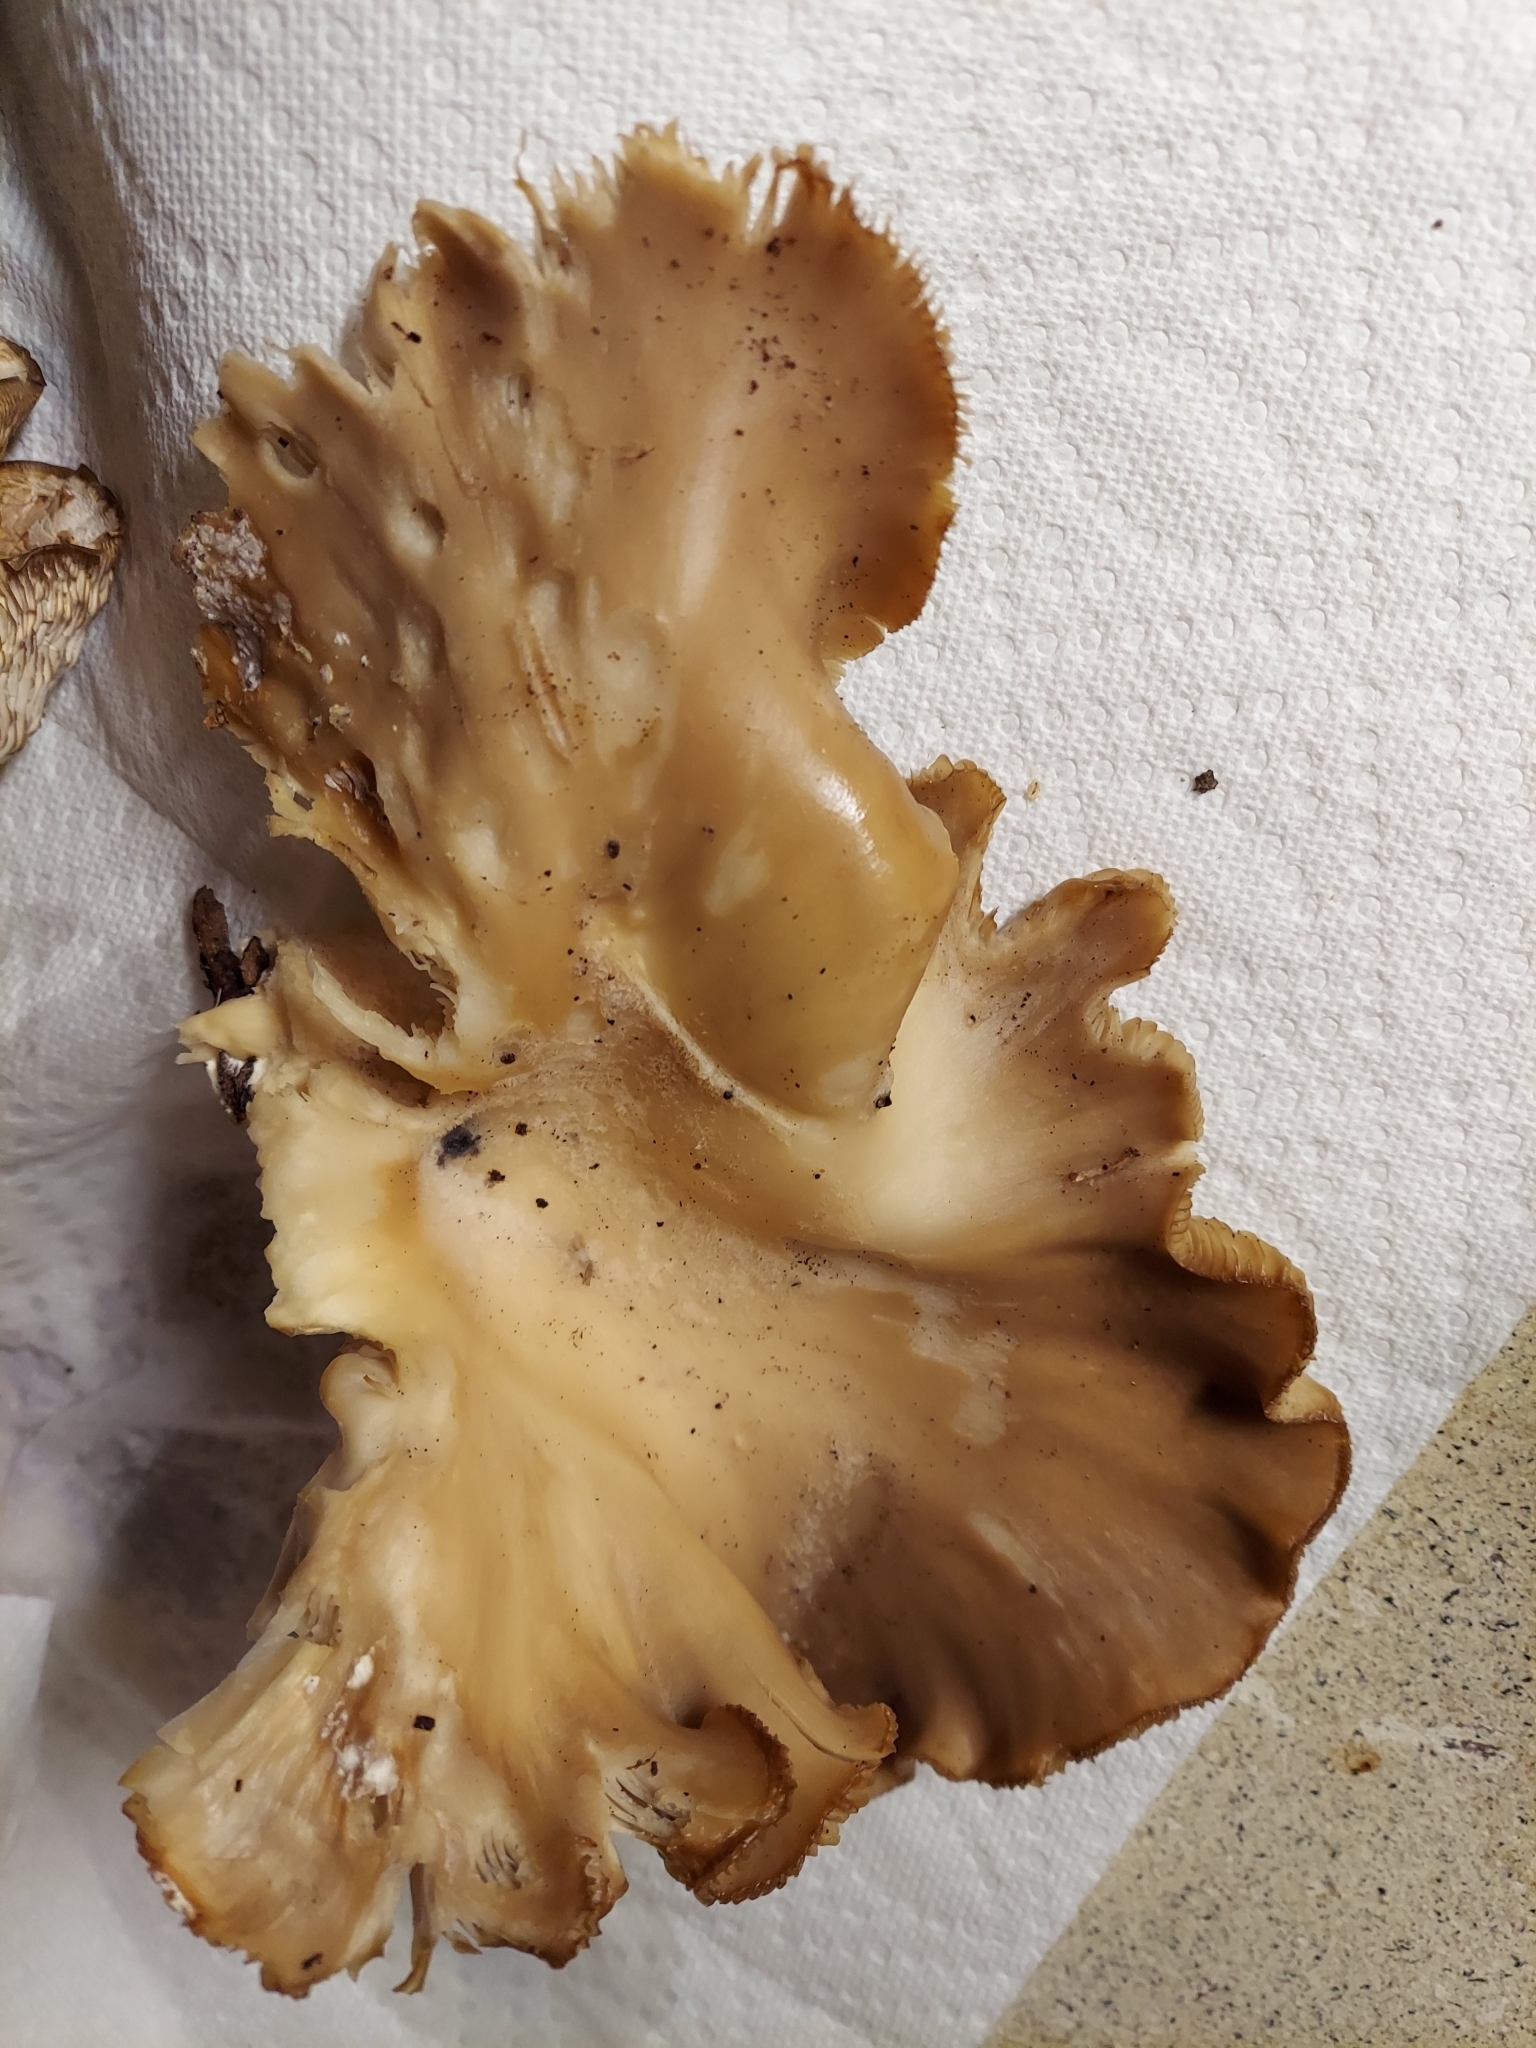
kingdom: Fungi
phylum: Basidiomycota
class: Agaricomycetes
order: Agaricales
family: Pleurotaceae
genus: Pleurotus
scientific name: Pleurotus ostreatus
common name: Oyster mushroom
